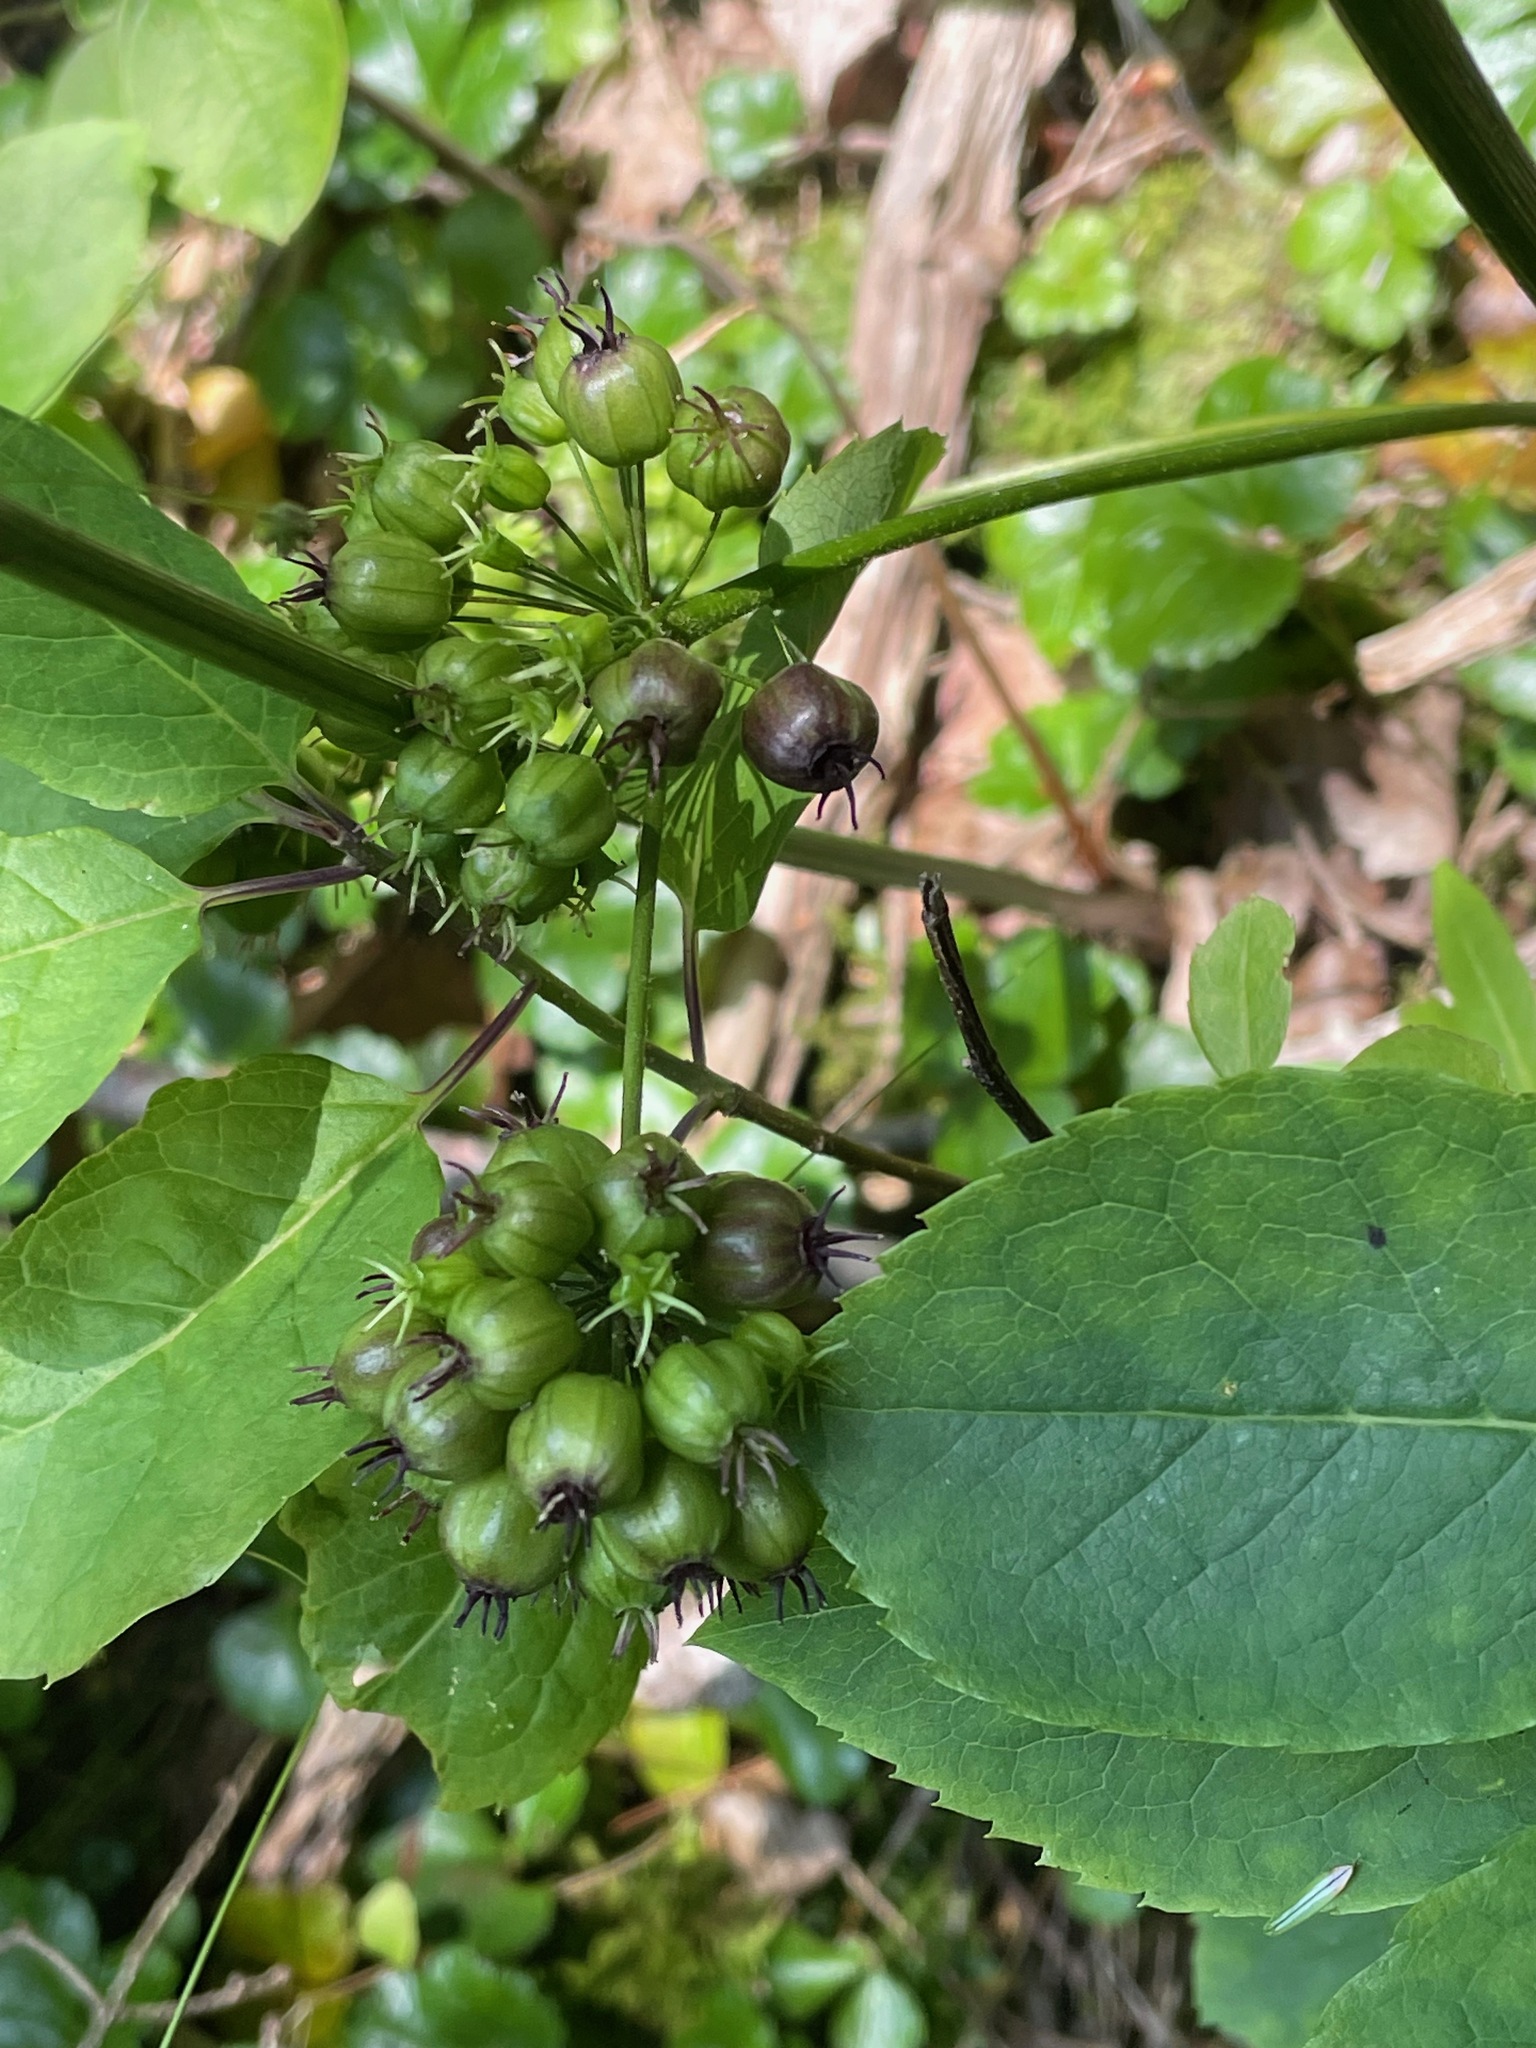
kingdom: Plantae
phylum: Tracheophyta
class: Magnoliopsida
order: Apiales
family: Araliaceae
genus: Aralia
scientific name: Aralia nudicaulis
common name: Wild sarsaparilla
